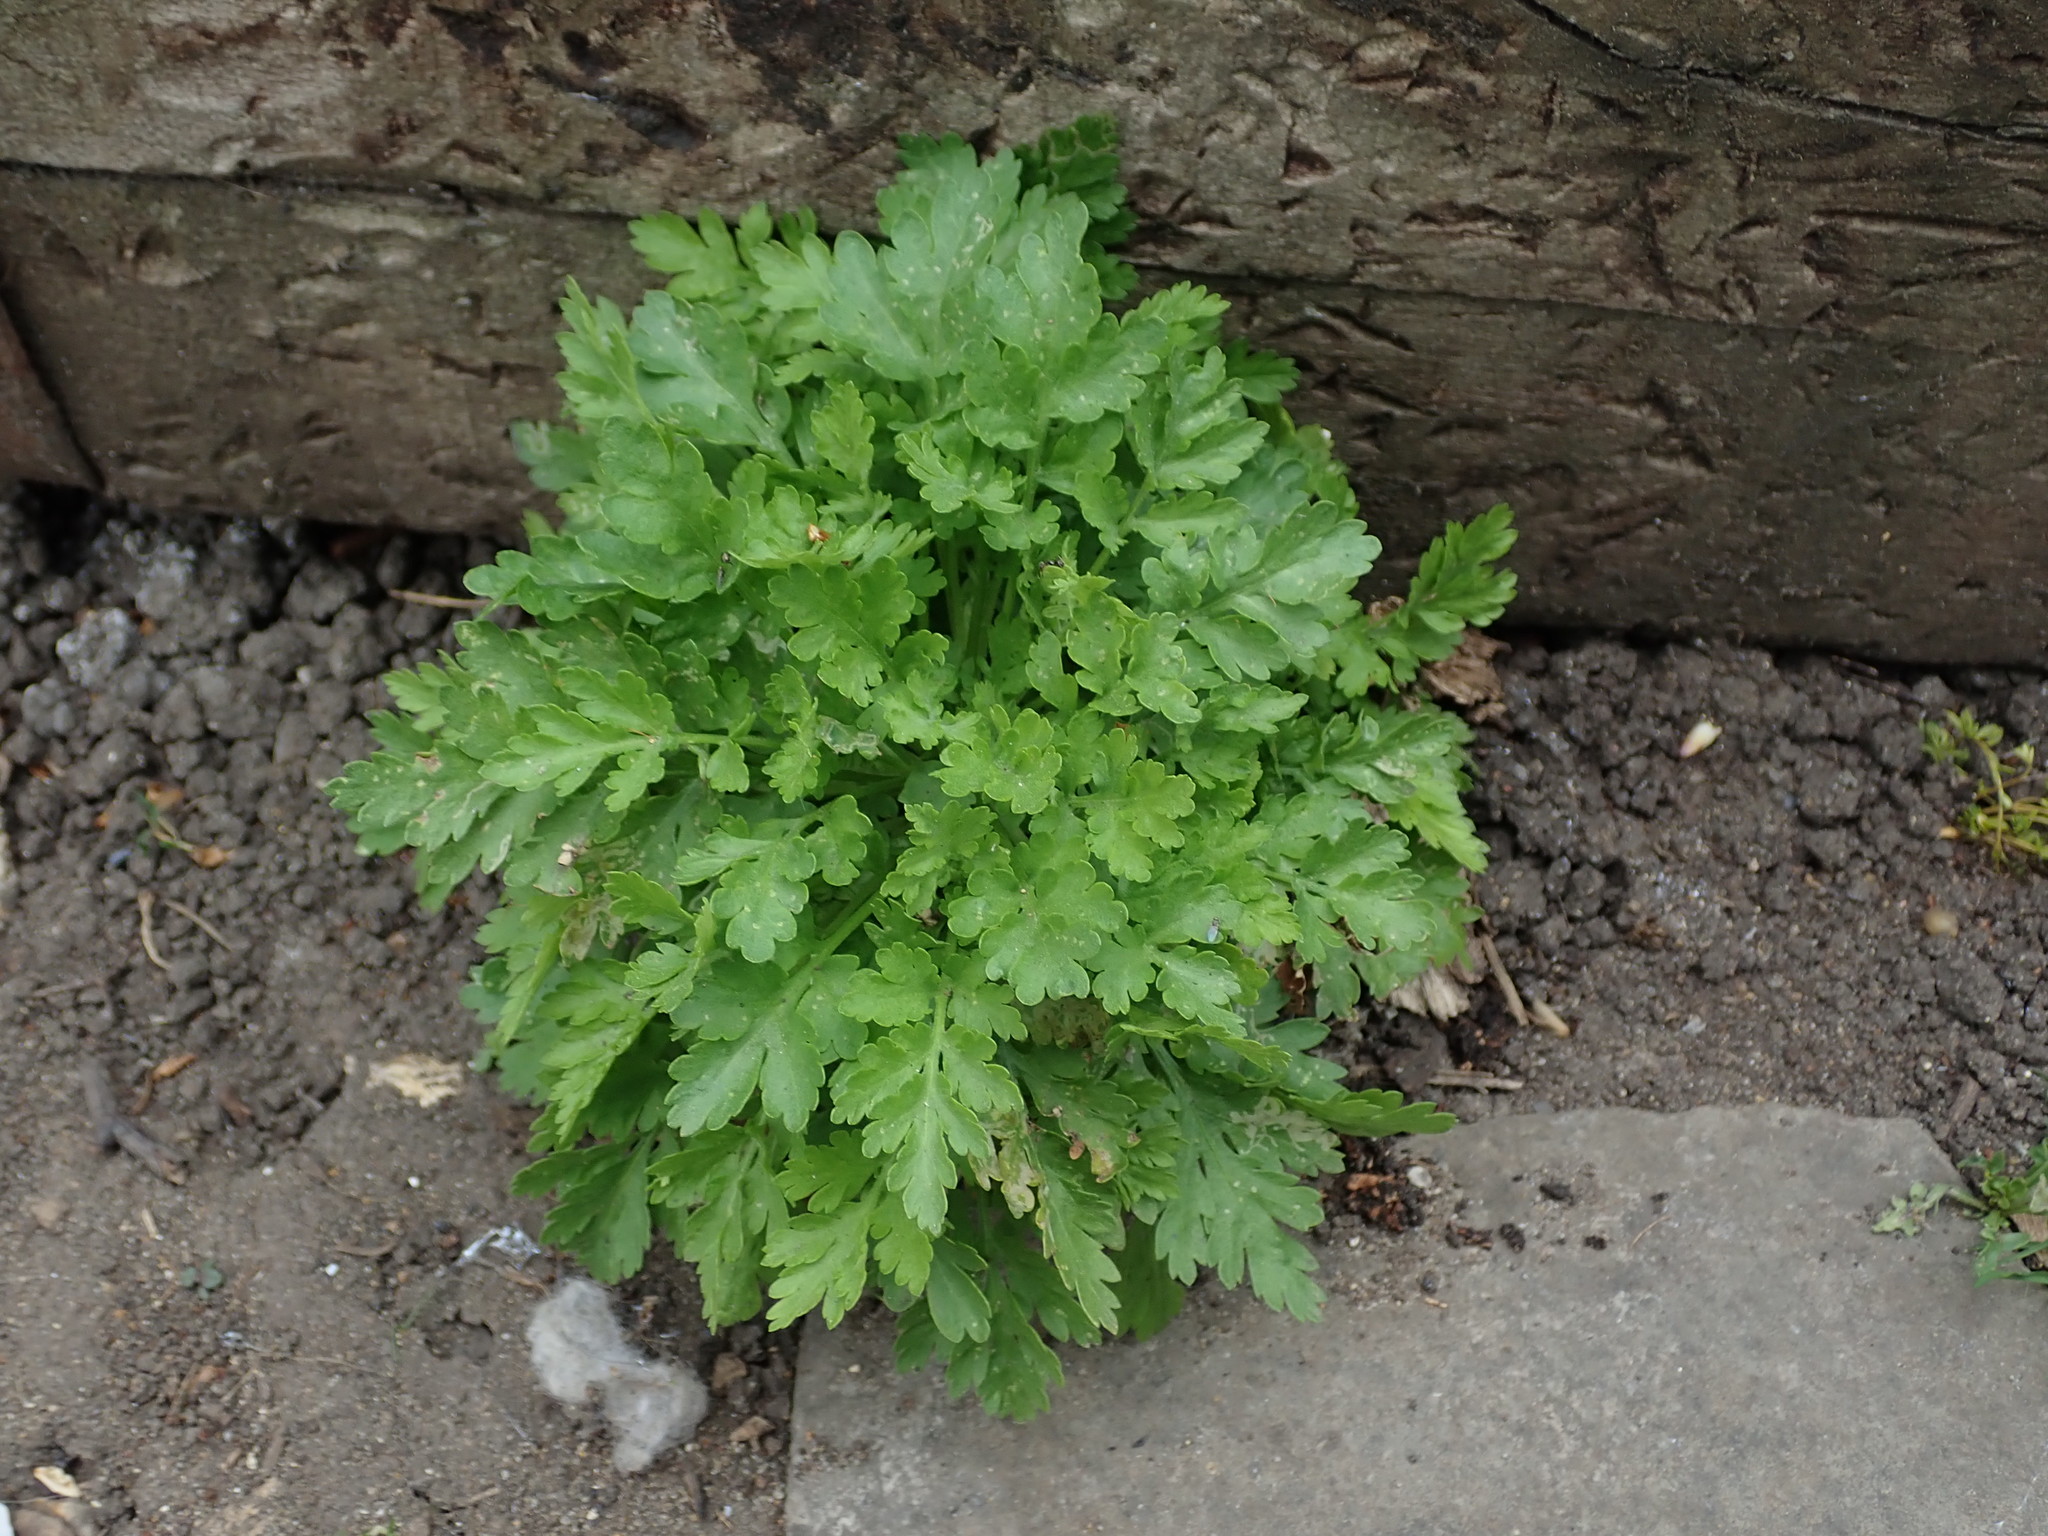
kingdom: Plantae
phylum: Tracheophyta
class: Magnoliopsida
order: Asterales
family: Asteraceae
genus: Tanacetum
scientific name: Tanacetum parthenium
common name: Feverfew
